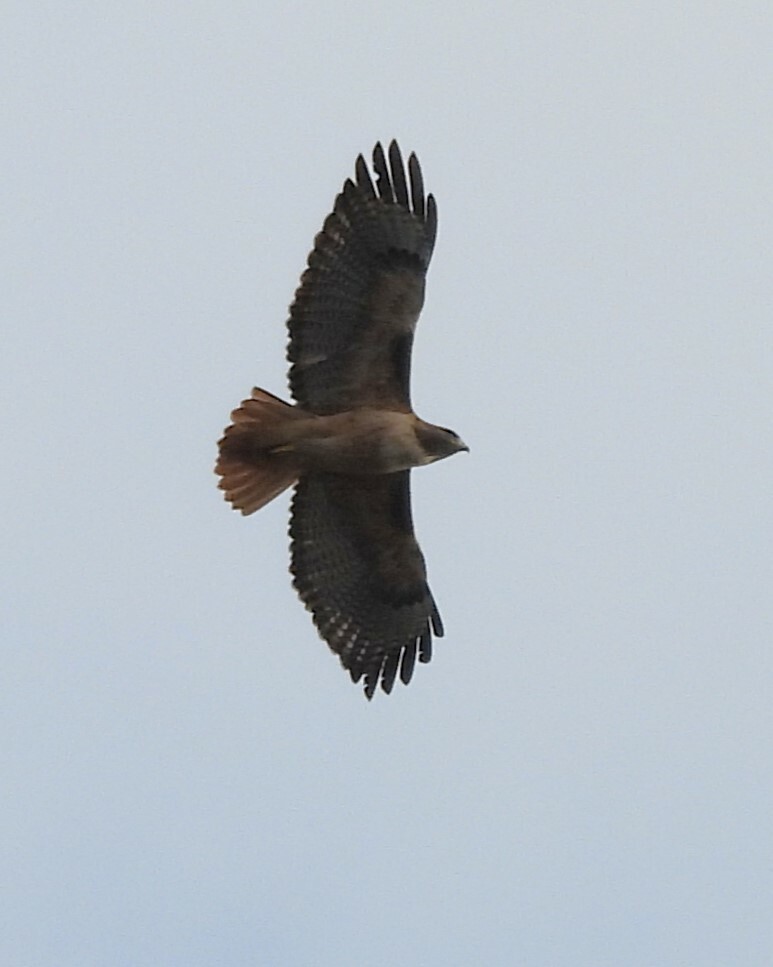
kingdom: Animalia
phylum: Chordata
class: Aves
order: Accipitriformes
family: Accipitridae
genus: Buteo
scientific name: Buteo jamaicensis
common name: Red-tailed hawk
